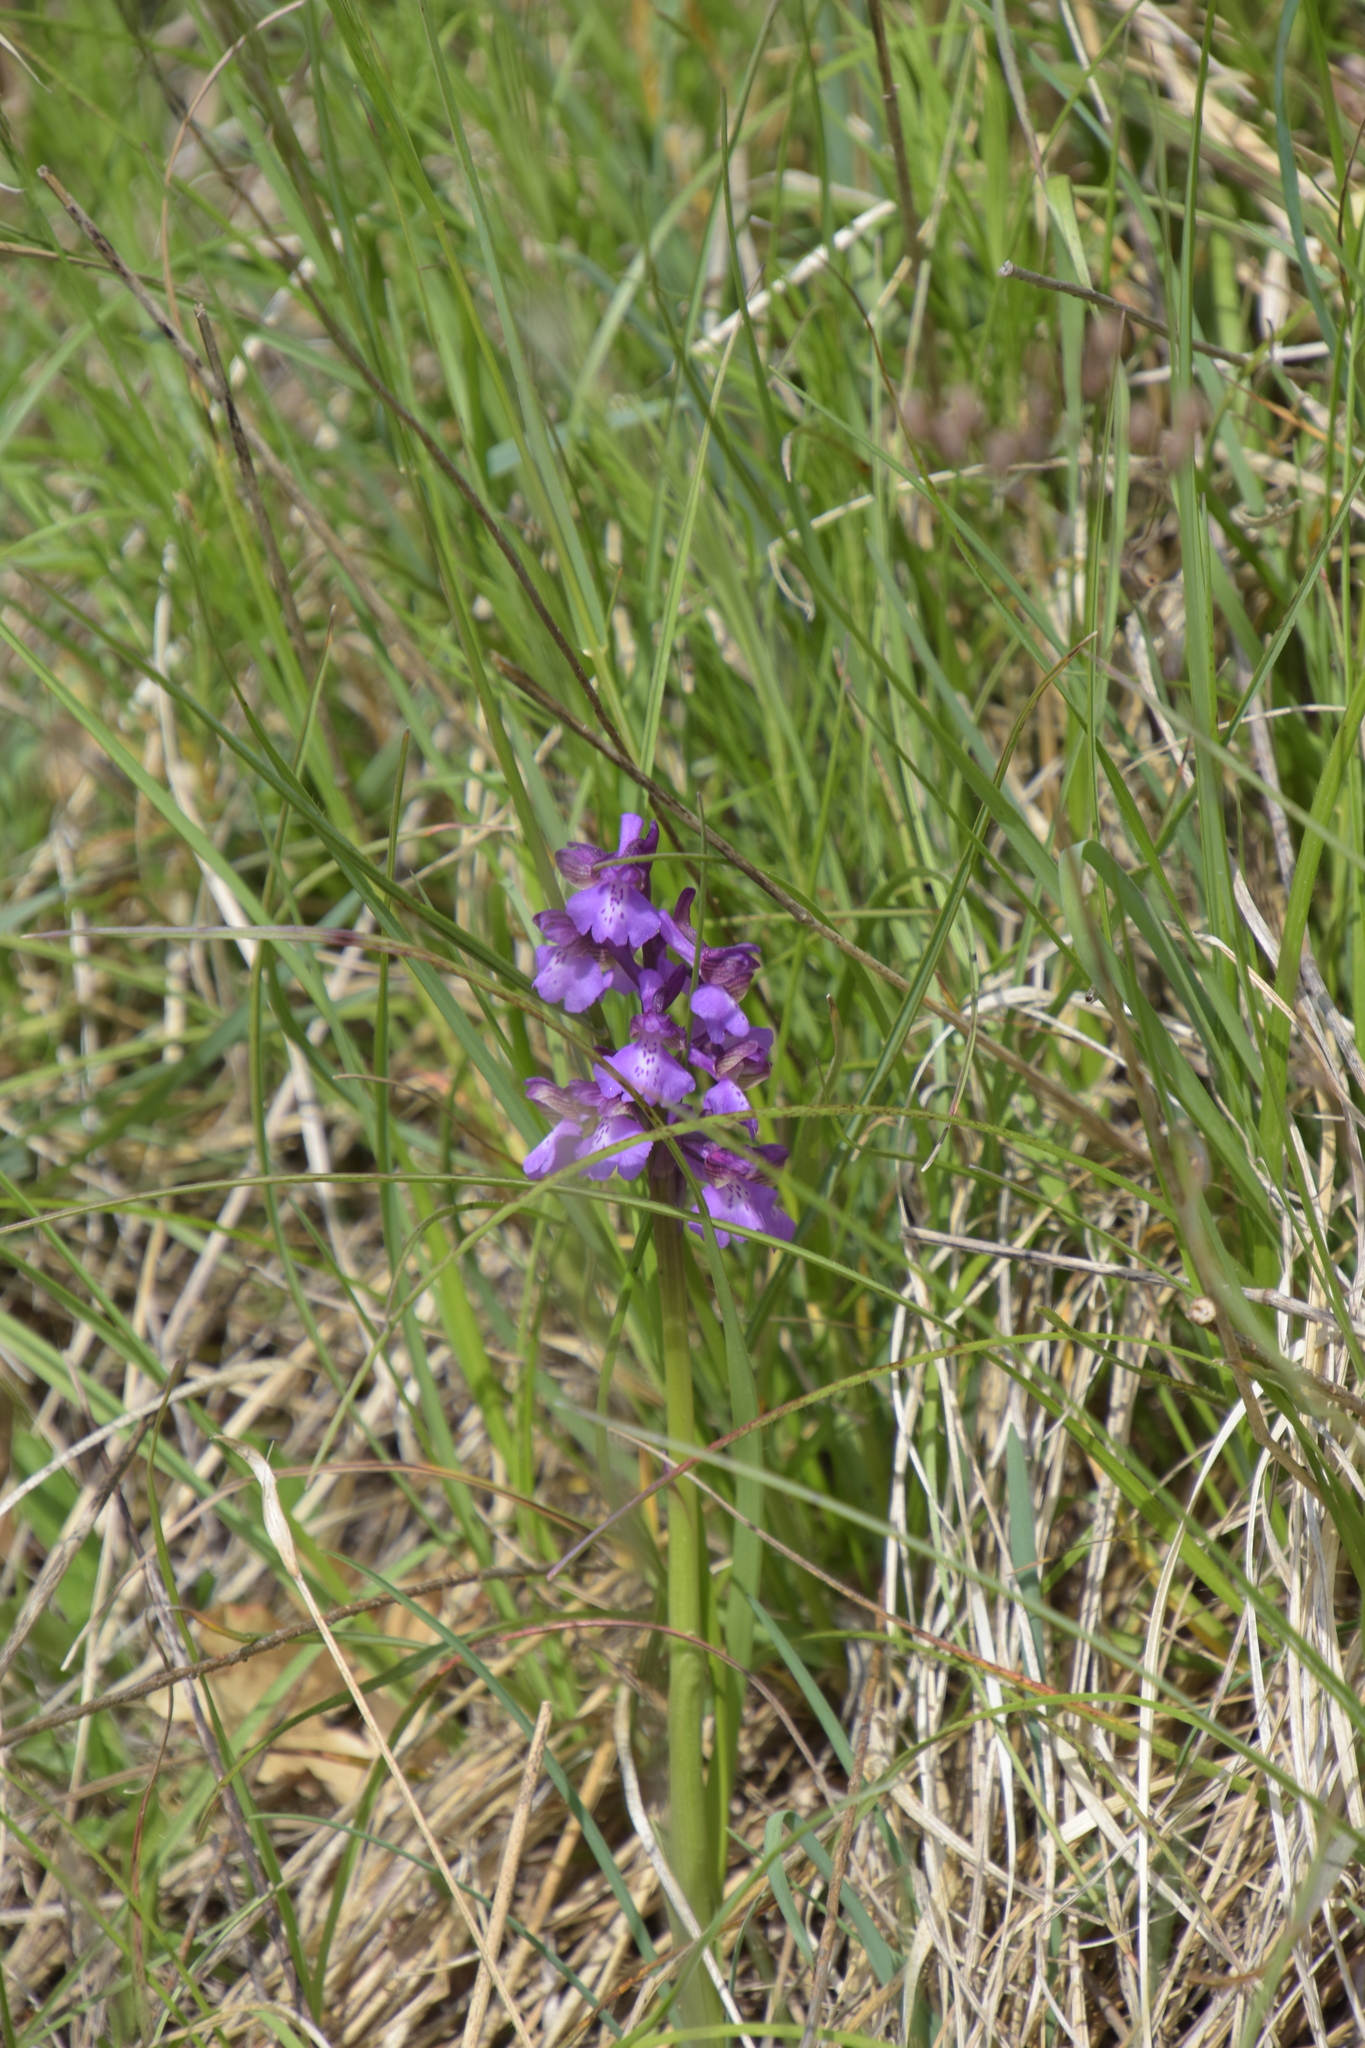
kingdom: Plantae
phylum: Tracheophyta
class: Liliopsida
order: Asparagales
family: Orchidaceae
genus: Anacamptis
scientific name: Anacamptis morio
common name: Green-winged orchid
